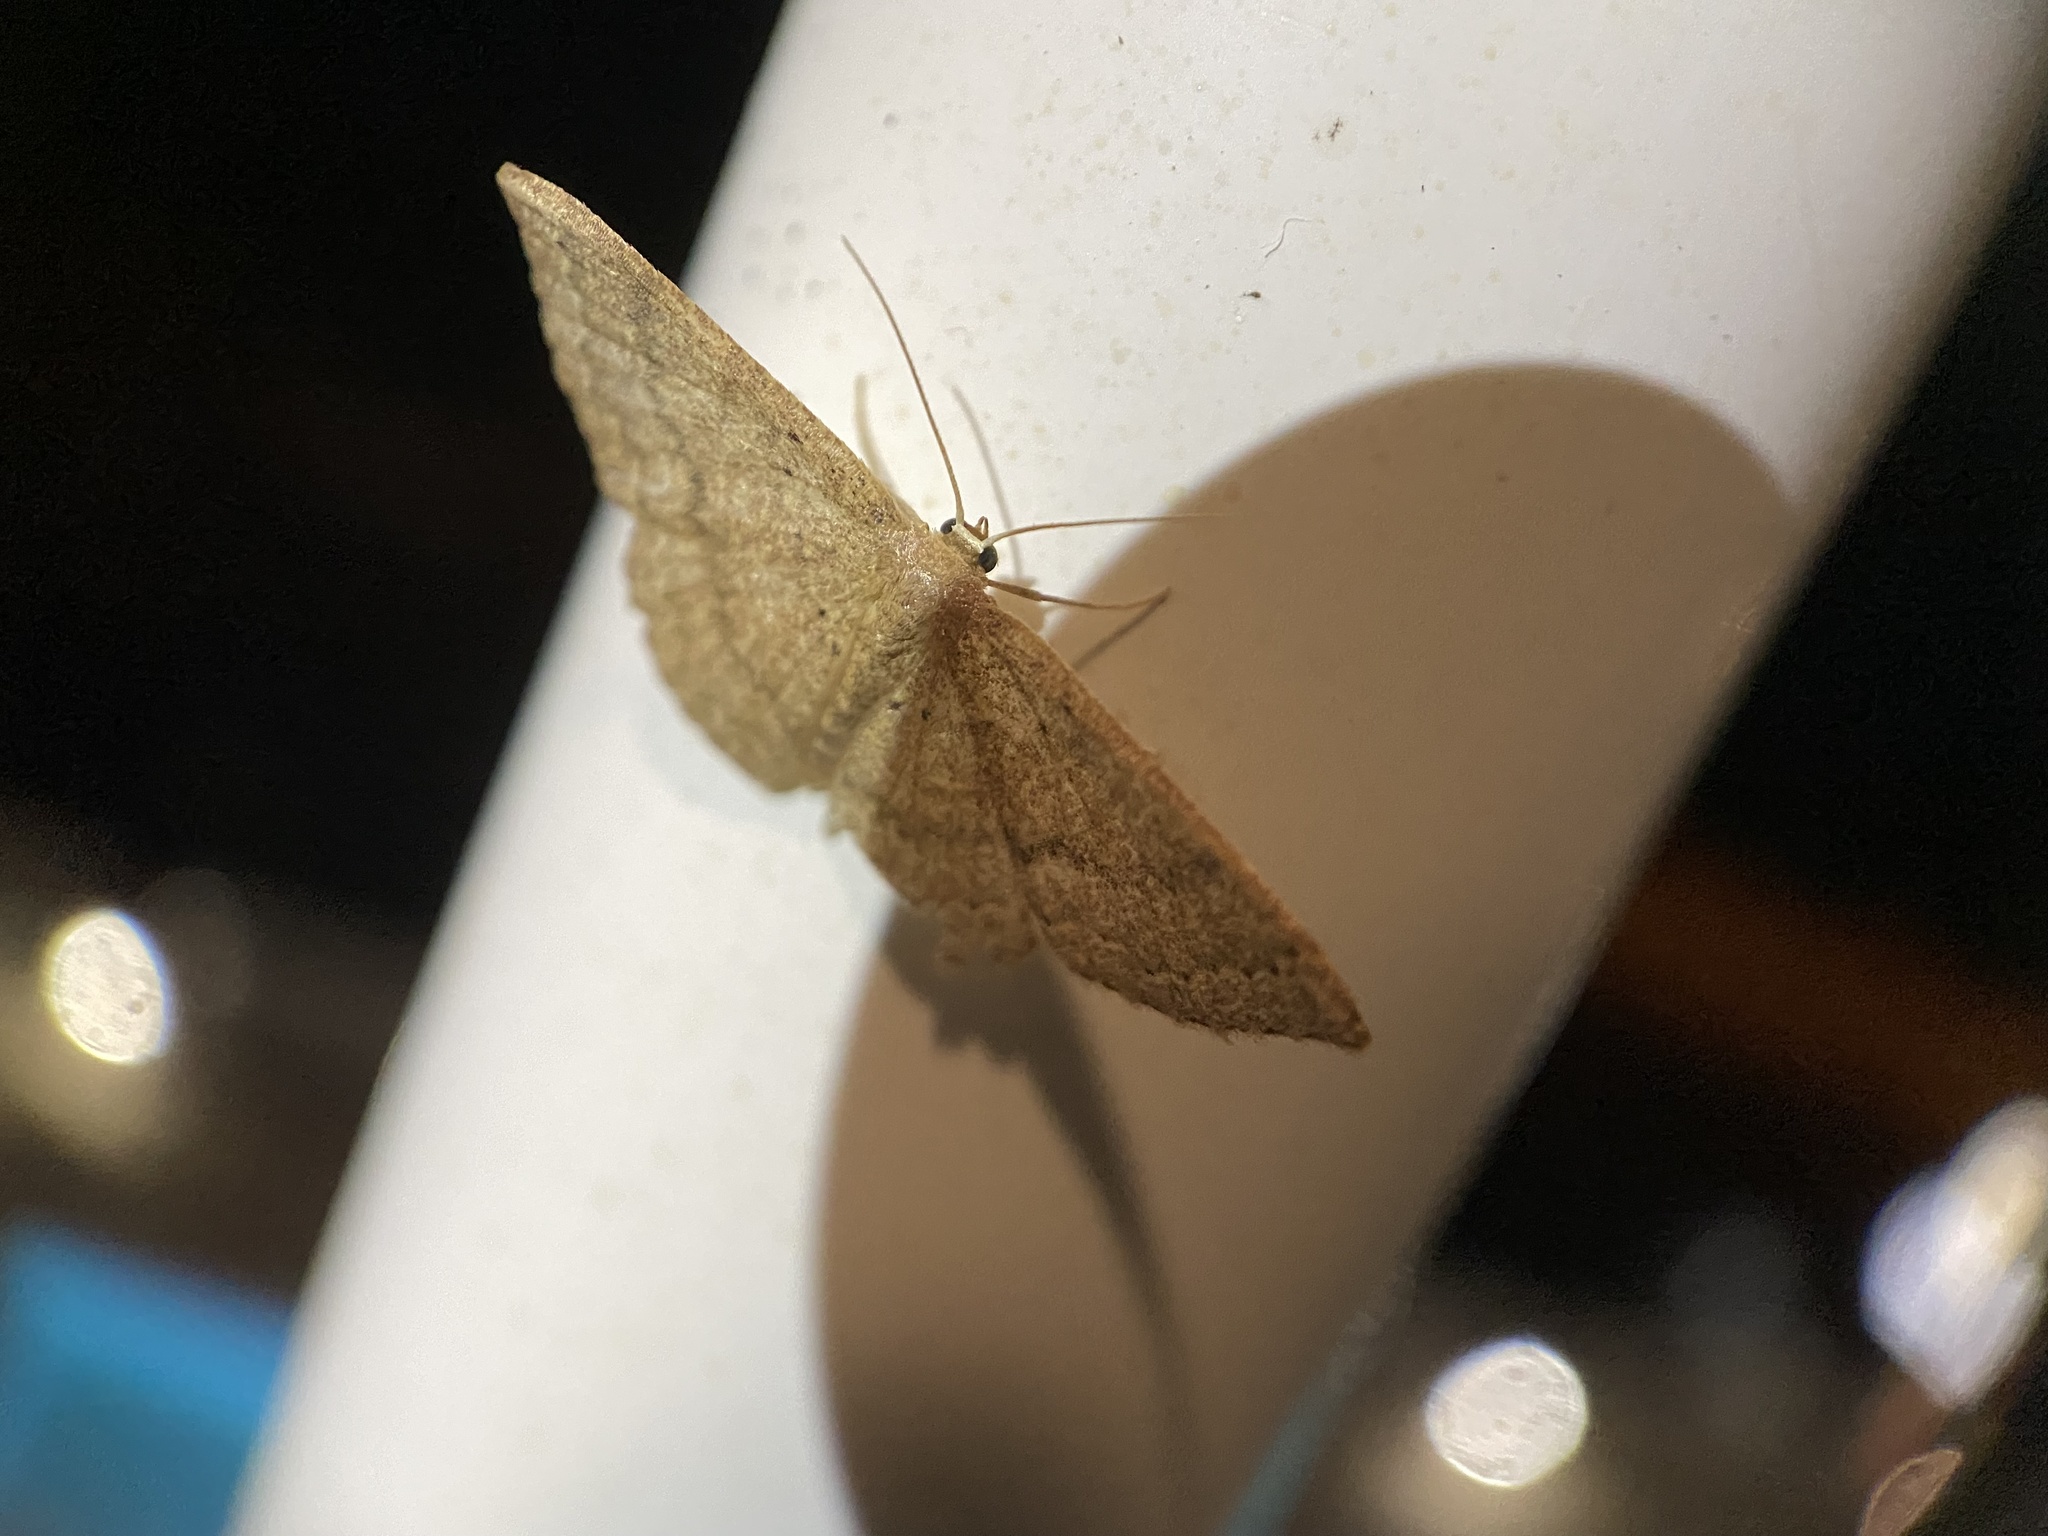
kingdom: Animalia
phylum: Arthropoda
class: Insecta
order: Lepidoptera
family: Geometridae
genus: Pleuroprucha
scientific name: Pleuroprucha insulsaria
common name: Common tan wave
